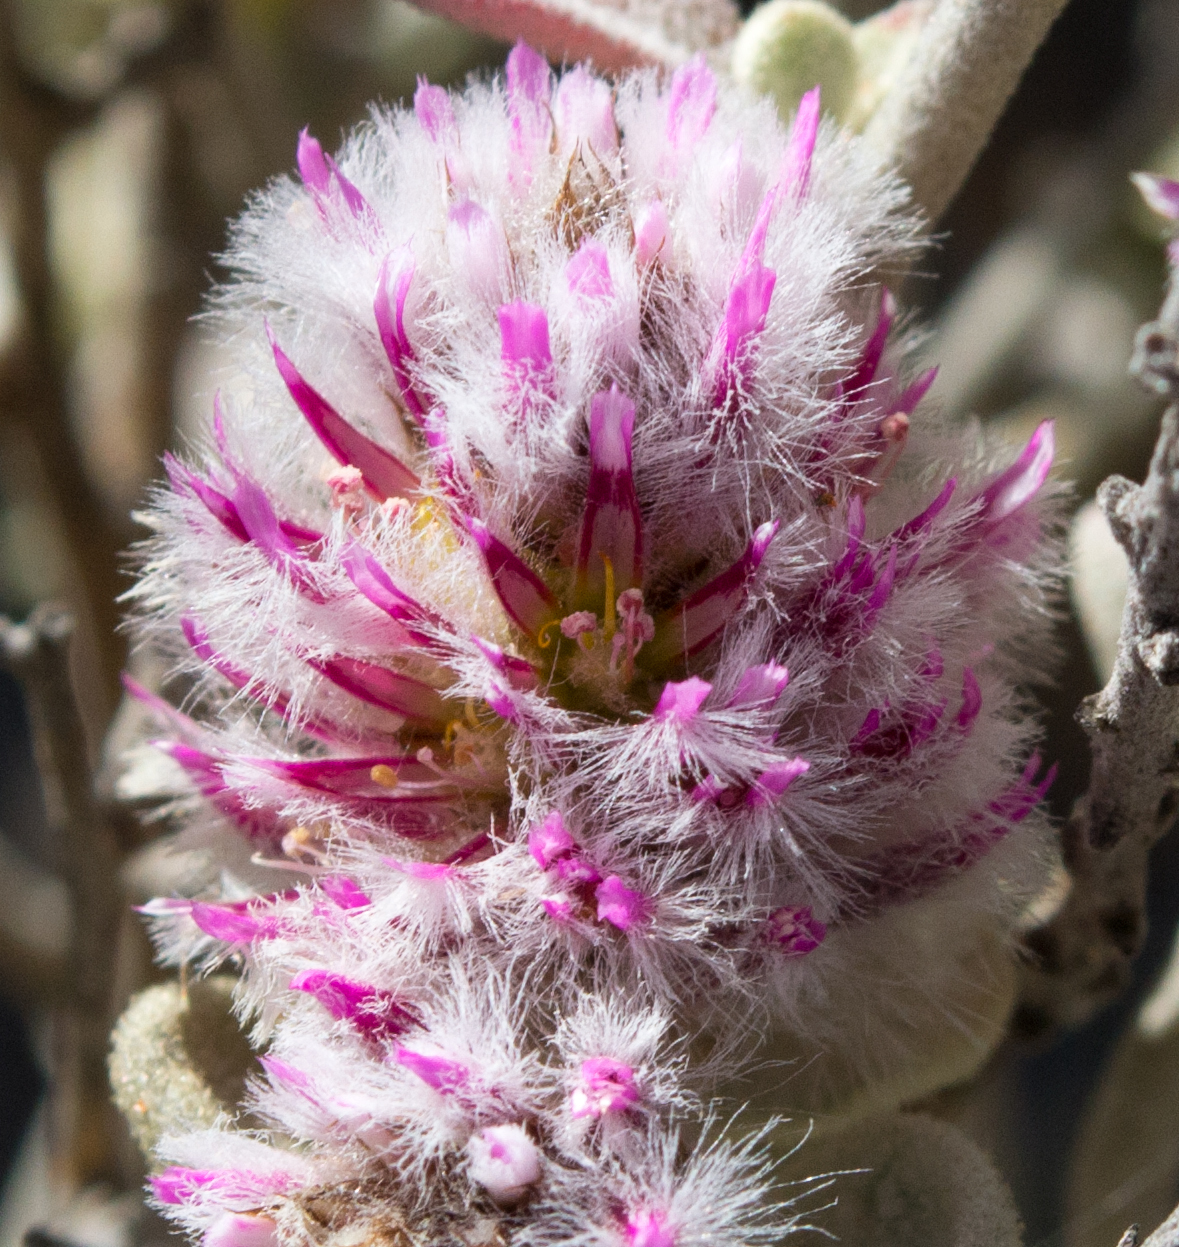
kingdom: Plantae
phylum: Tracheophyta
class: Magnoliopsida
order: Caryophyllales
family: Amaranthaceae
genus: Ptilotus
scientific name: Ptilotus obovatus
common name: Cottonbush
